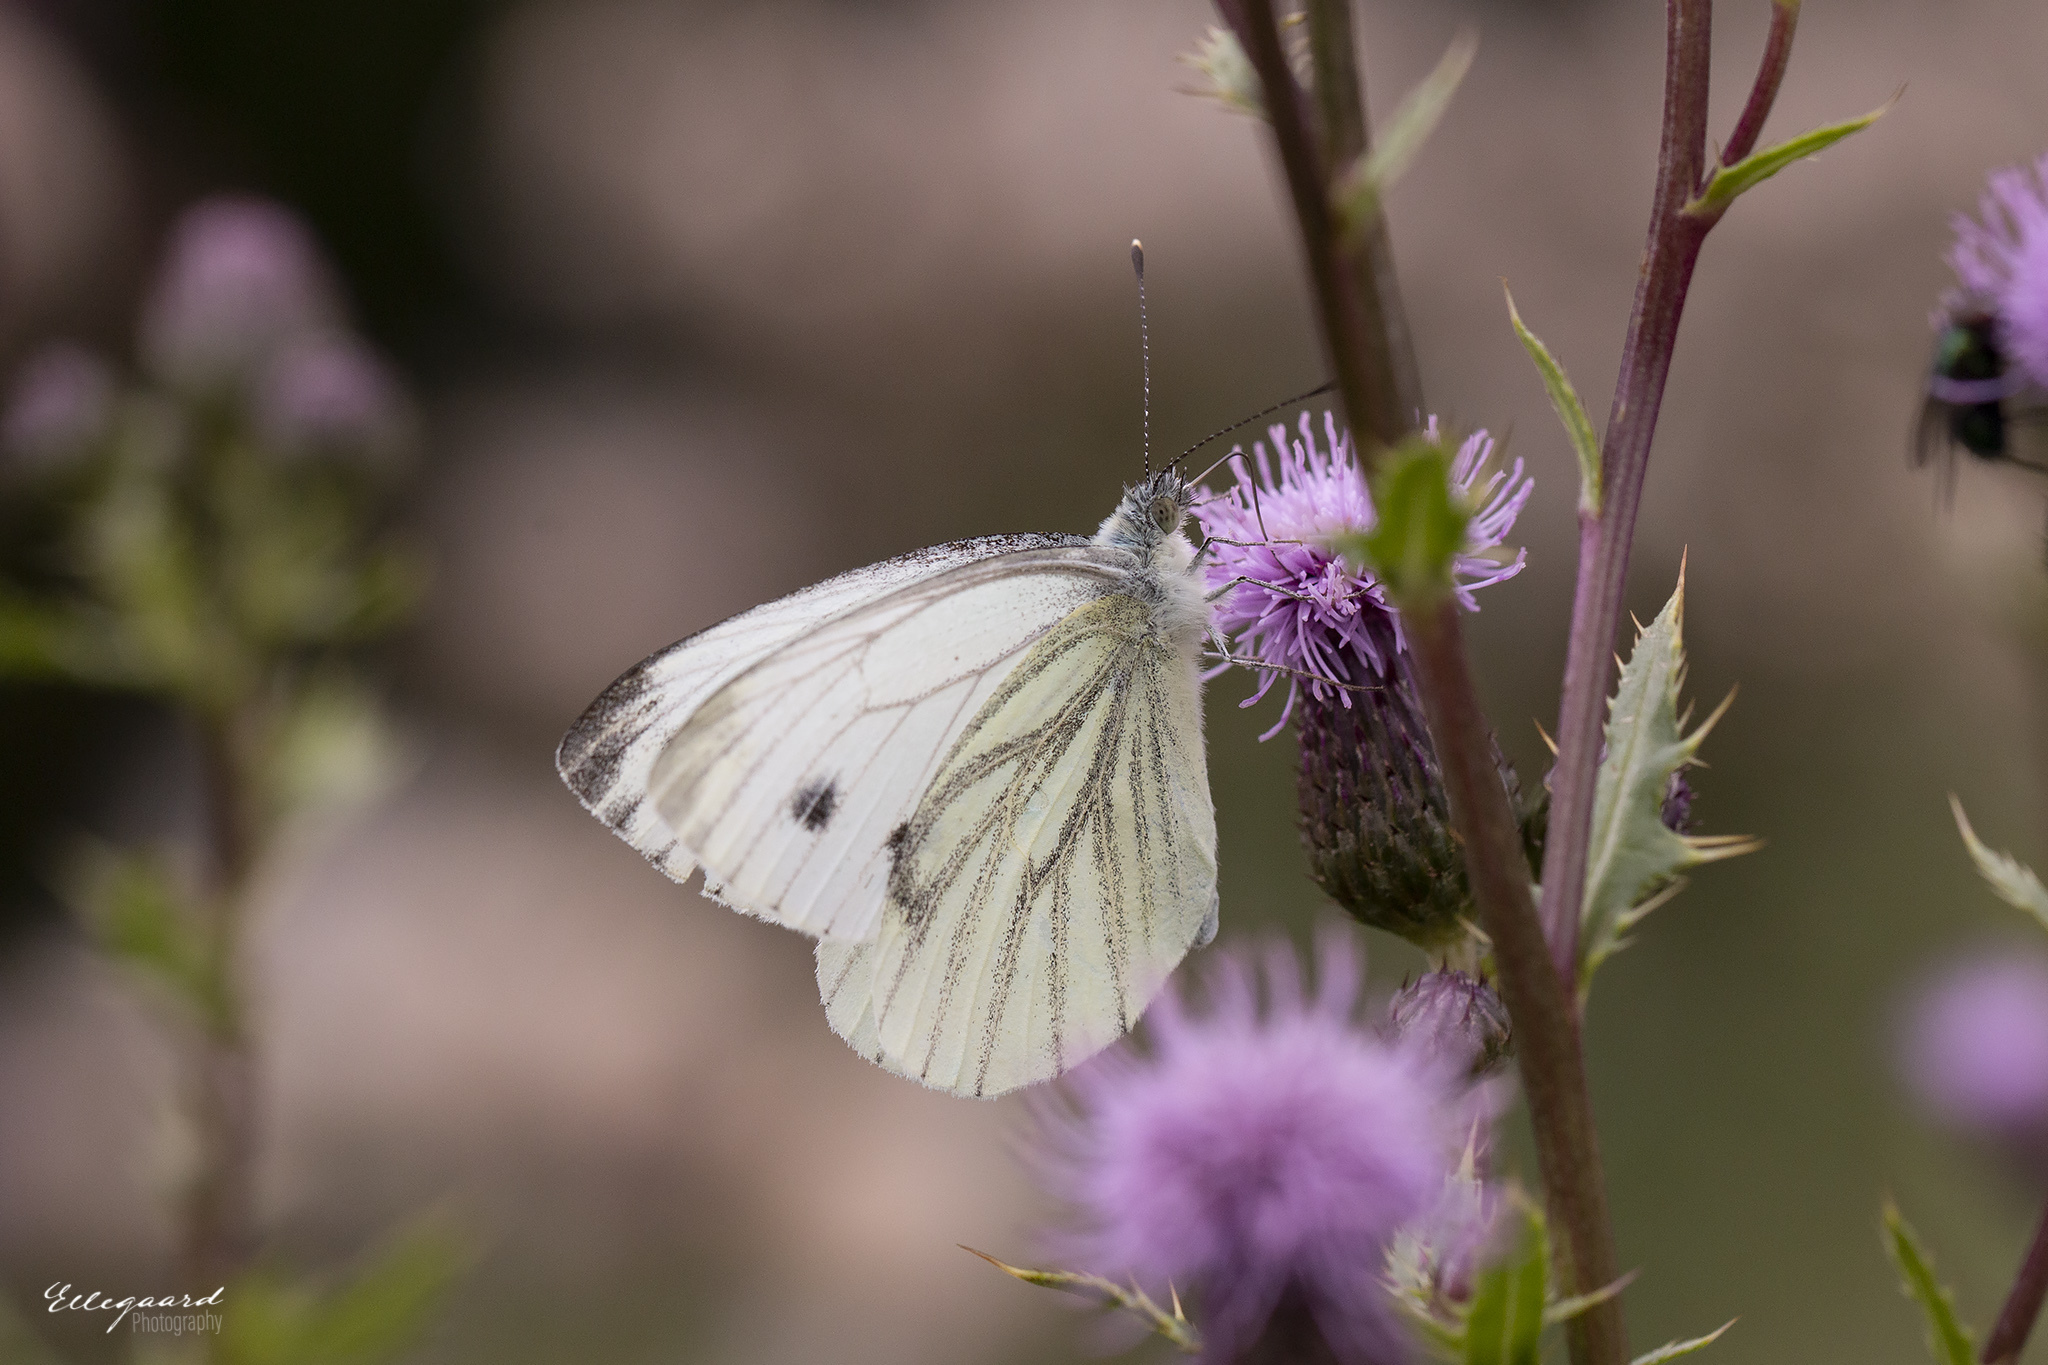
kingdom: Animalia
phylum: Arthropoda
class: Insecta
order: Lepidoptera
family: Pieridae
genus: Pieris
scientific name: Pieris napi
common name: Green-veined white
